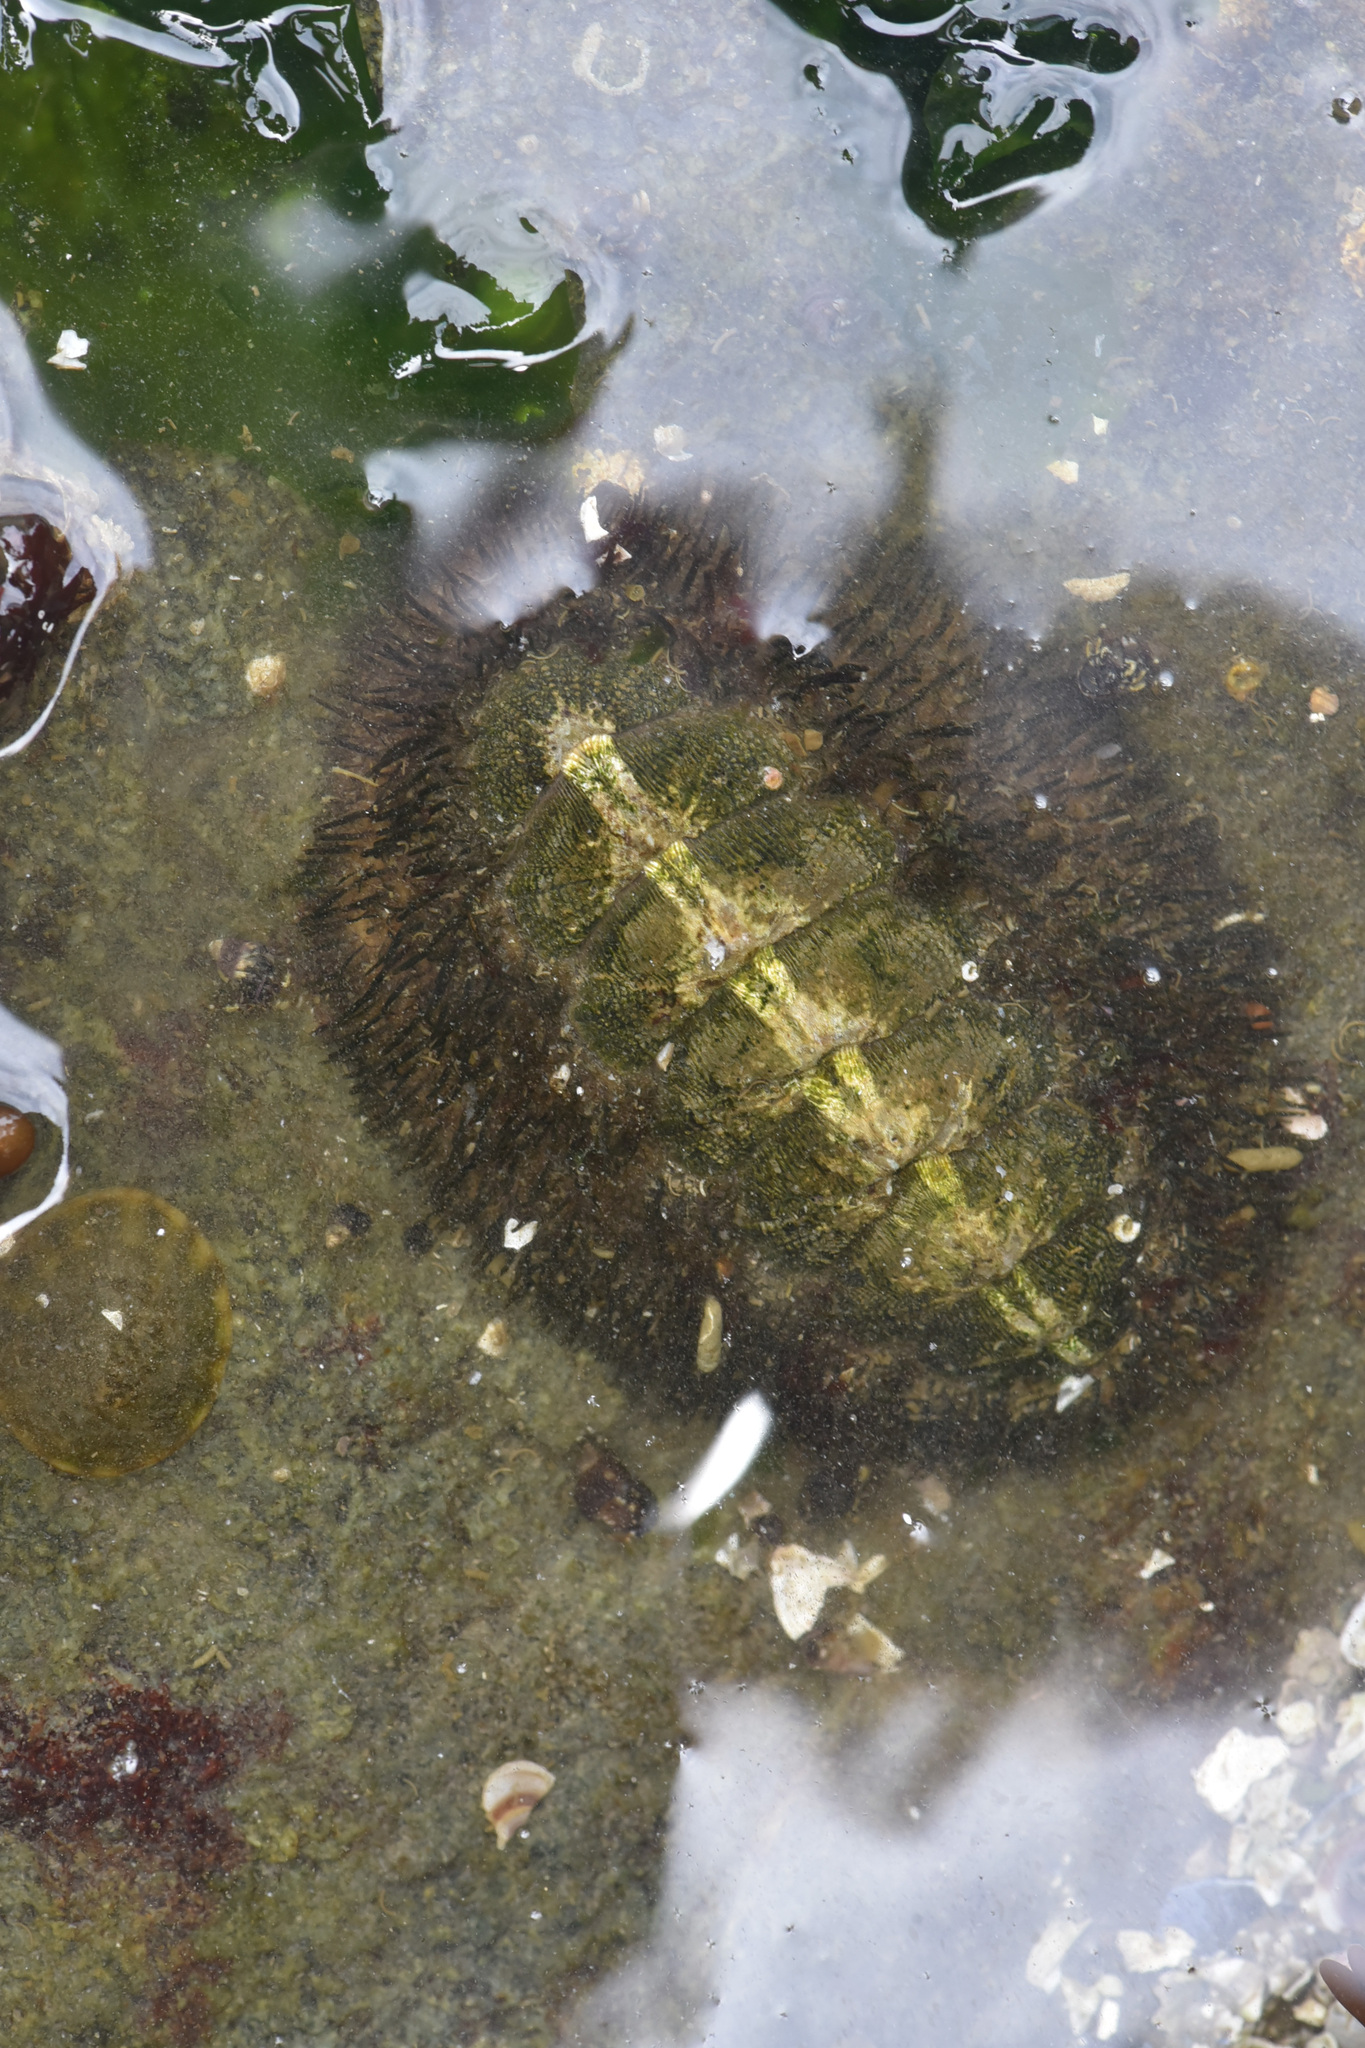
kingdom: Animalia
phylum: Mollusca
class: Polyplacophora
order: Chitonida
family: Mopaliidae
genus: Mopalia
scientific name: Mopalia muscosa
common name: Mossy chiton
